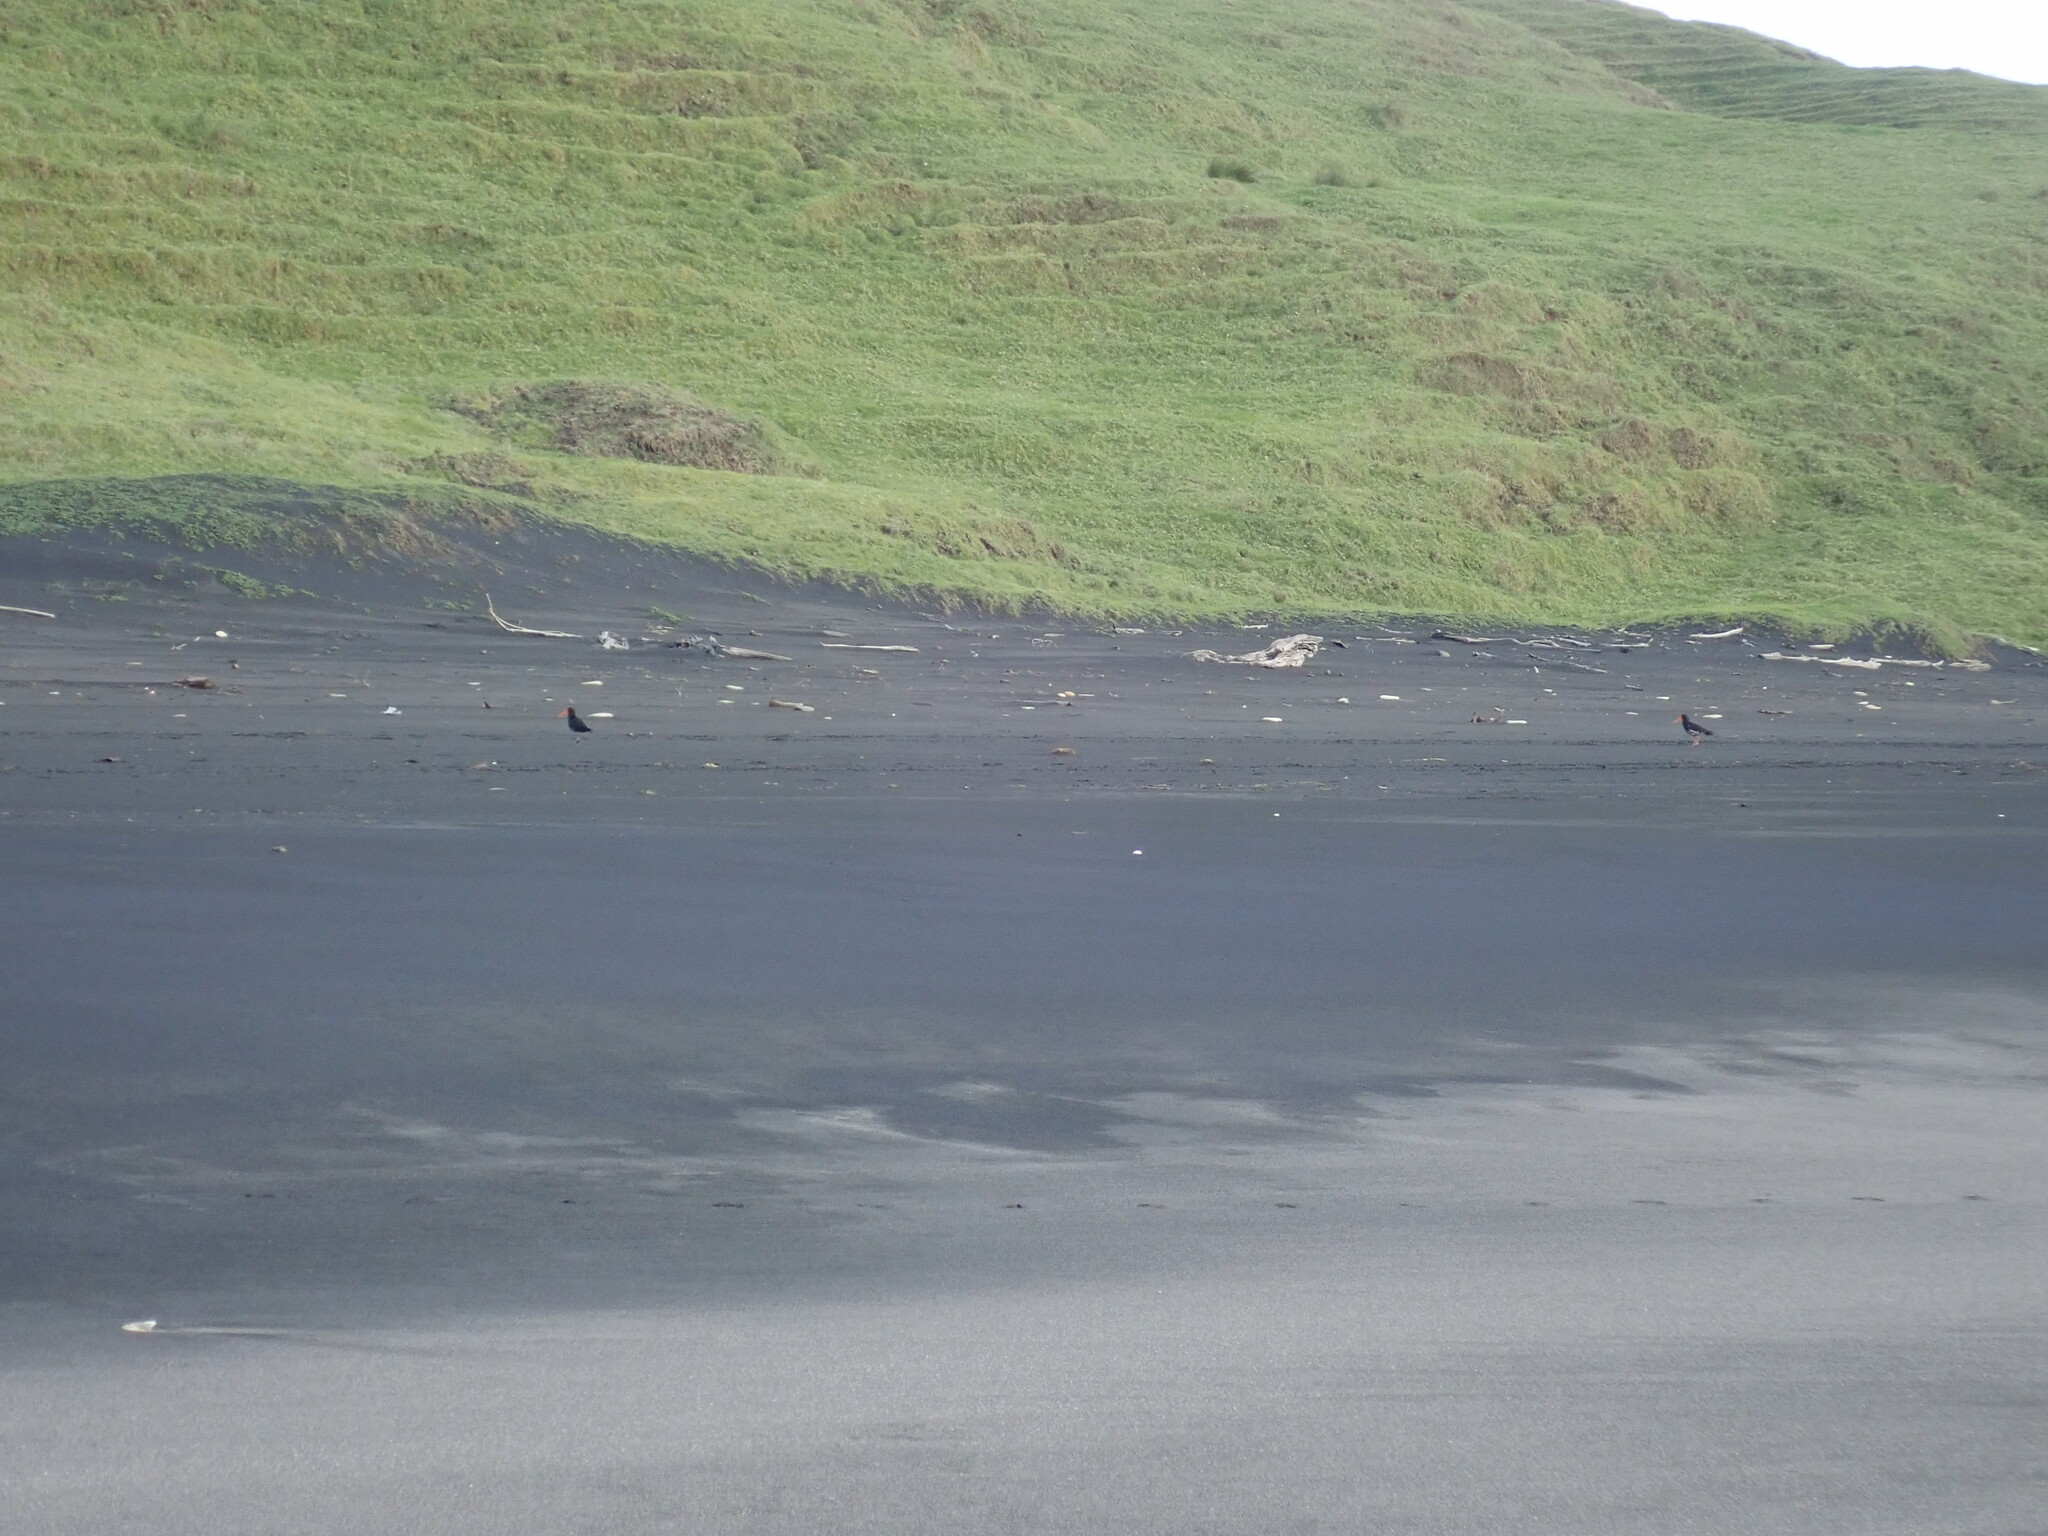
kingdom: Animalia
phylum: Chordata
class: Aves
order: Charadriiformes
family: Haematopodidae
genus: Haematopus
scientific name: Haematopus unicolor
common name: Variable oystercatcher
